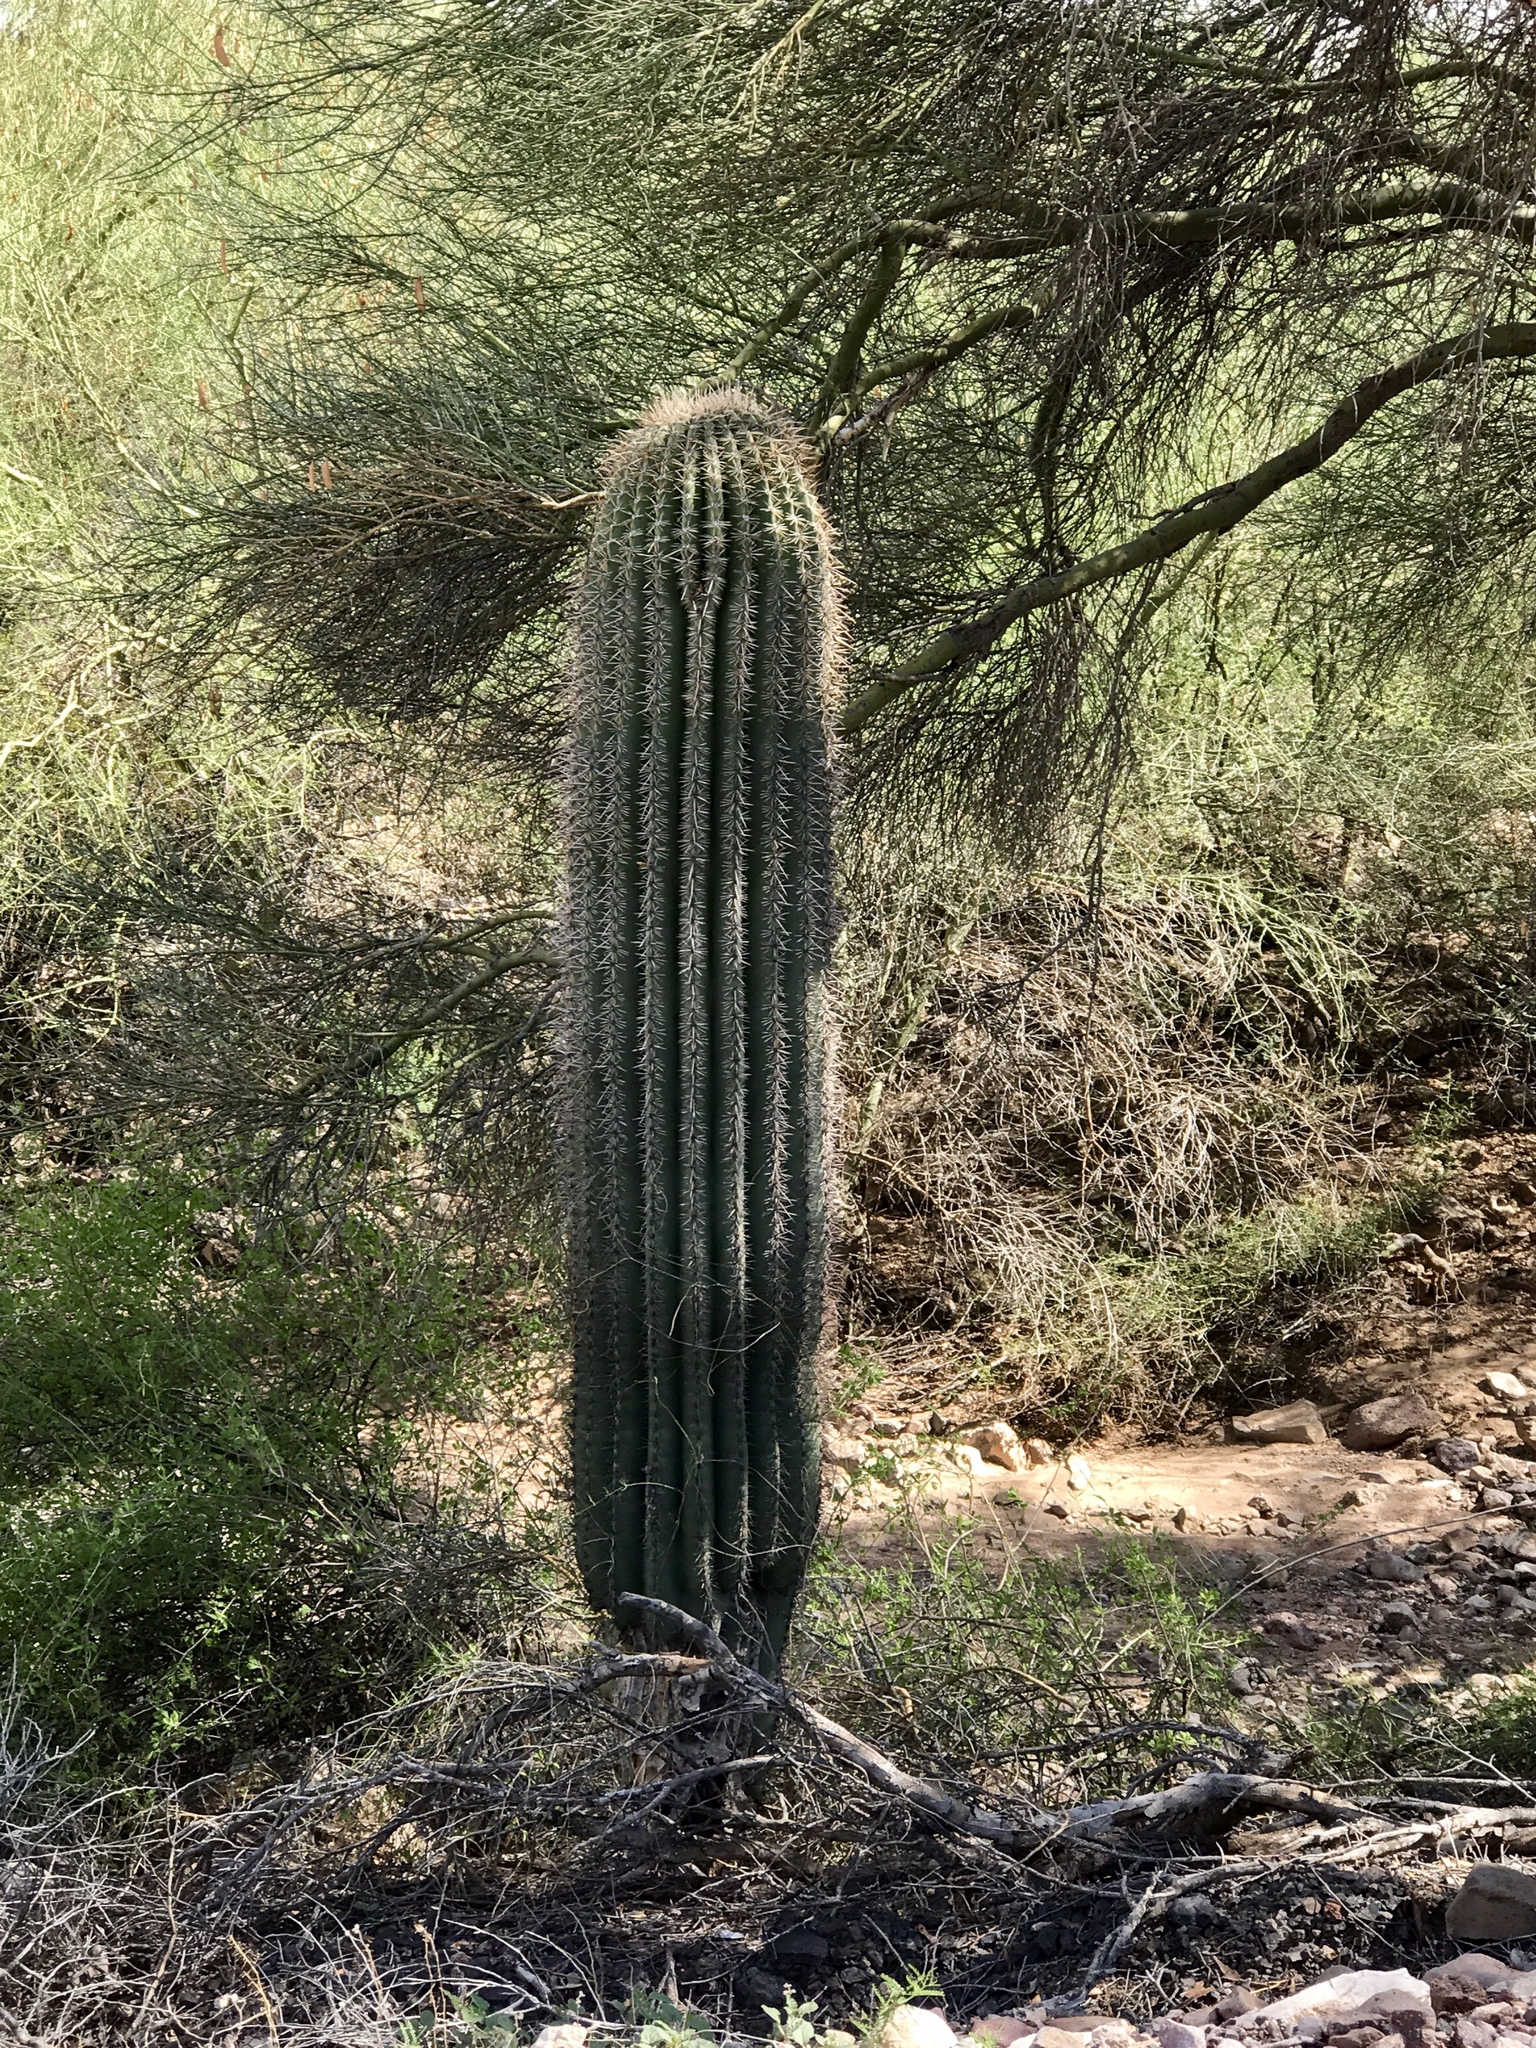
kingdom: Plantae
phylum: Tracheophyta
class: Magnoliopsida
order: Caryophyllales
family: Cactaceae
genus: Carnegiea
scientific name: Carnegiea gigantea
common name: Saguaro
